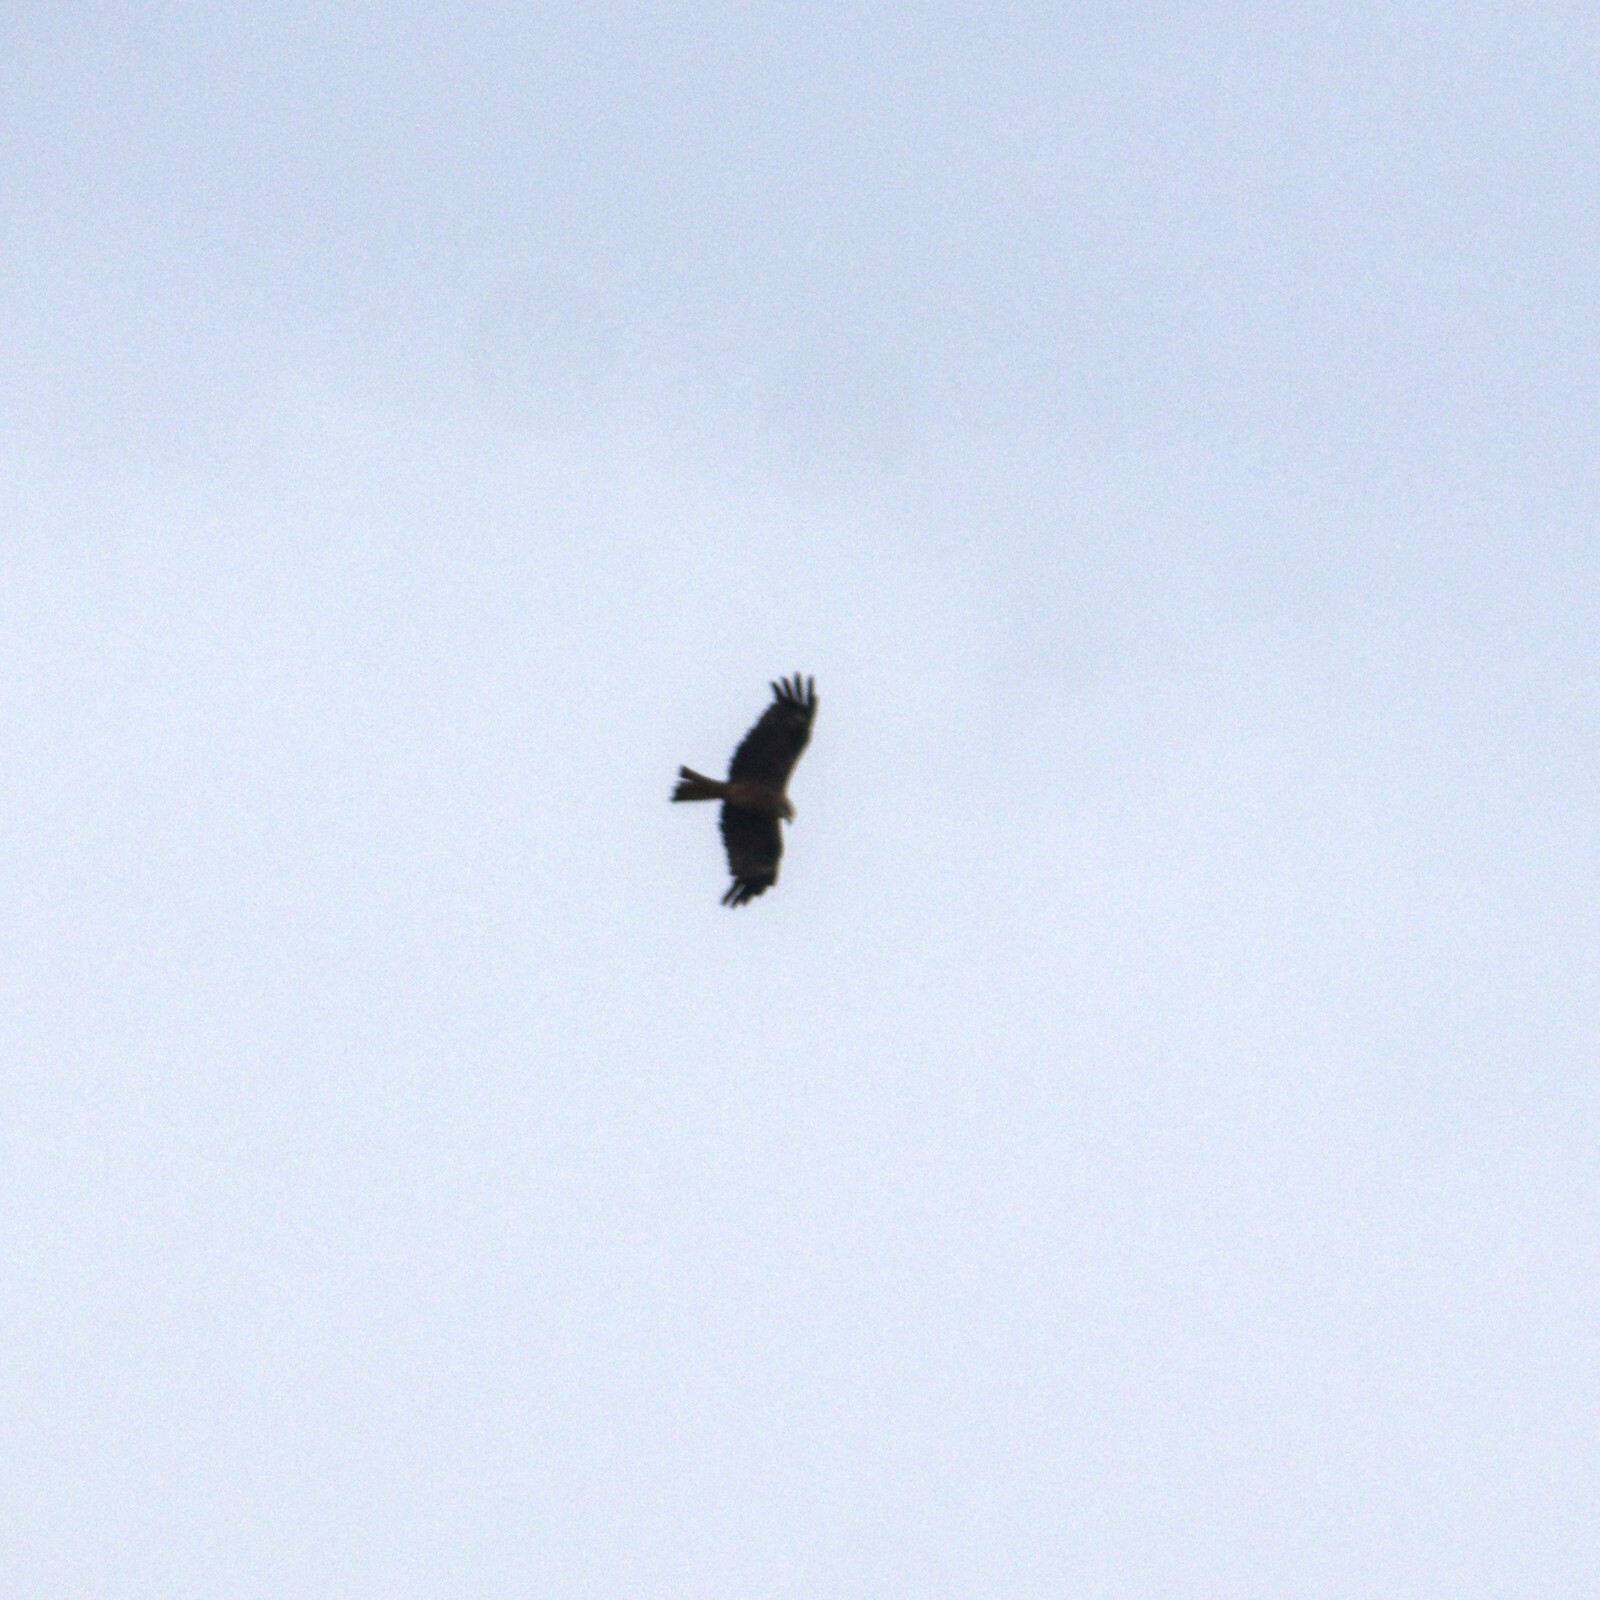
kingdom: Animalia
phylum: Chordata
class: Aves
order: Accipitriformes
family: Accipitridae
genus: Milvus
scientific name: Milvus migrans
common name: Black kite
